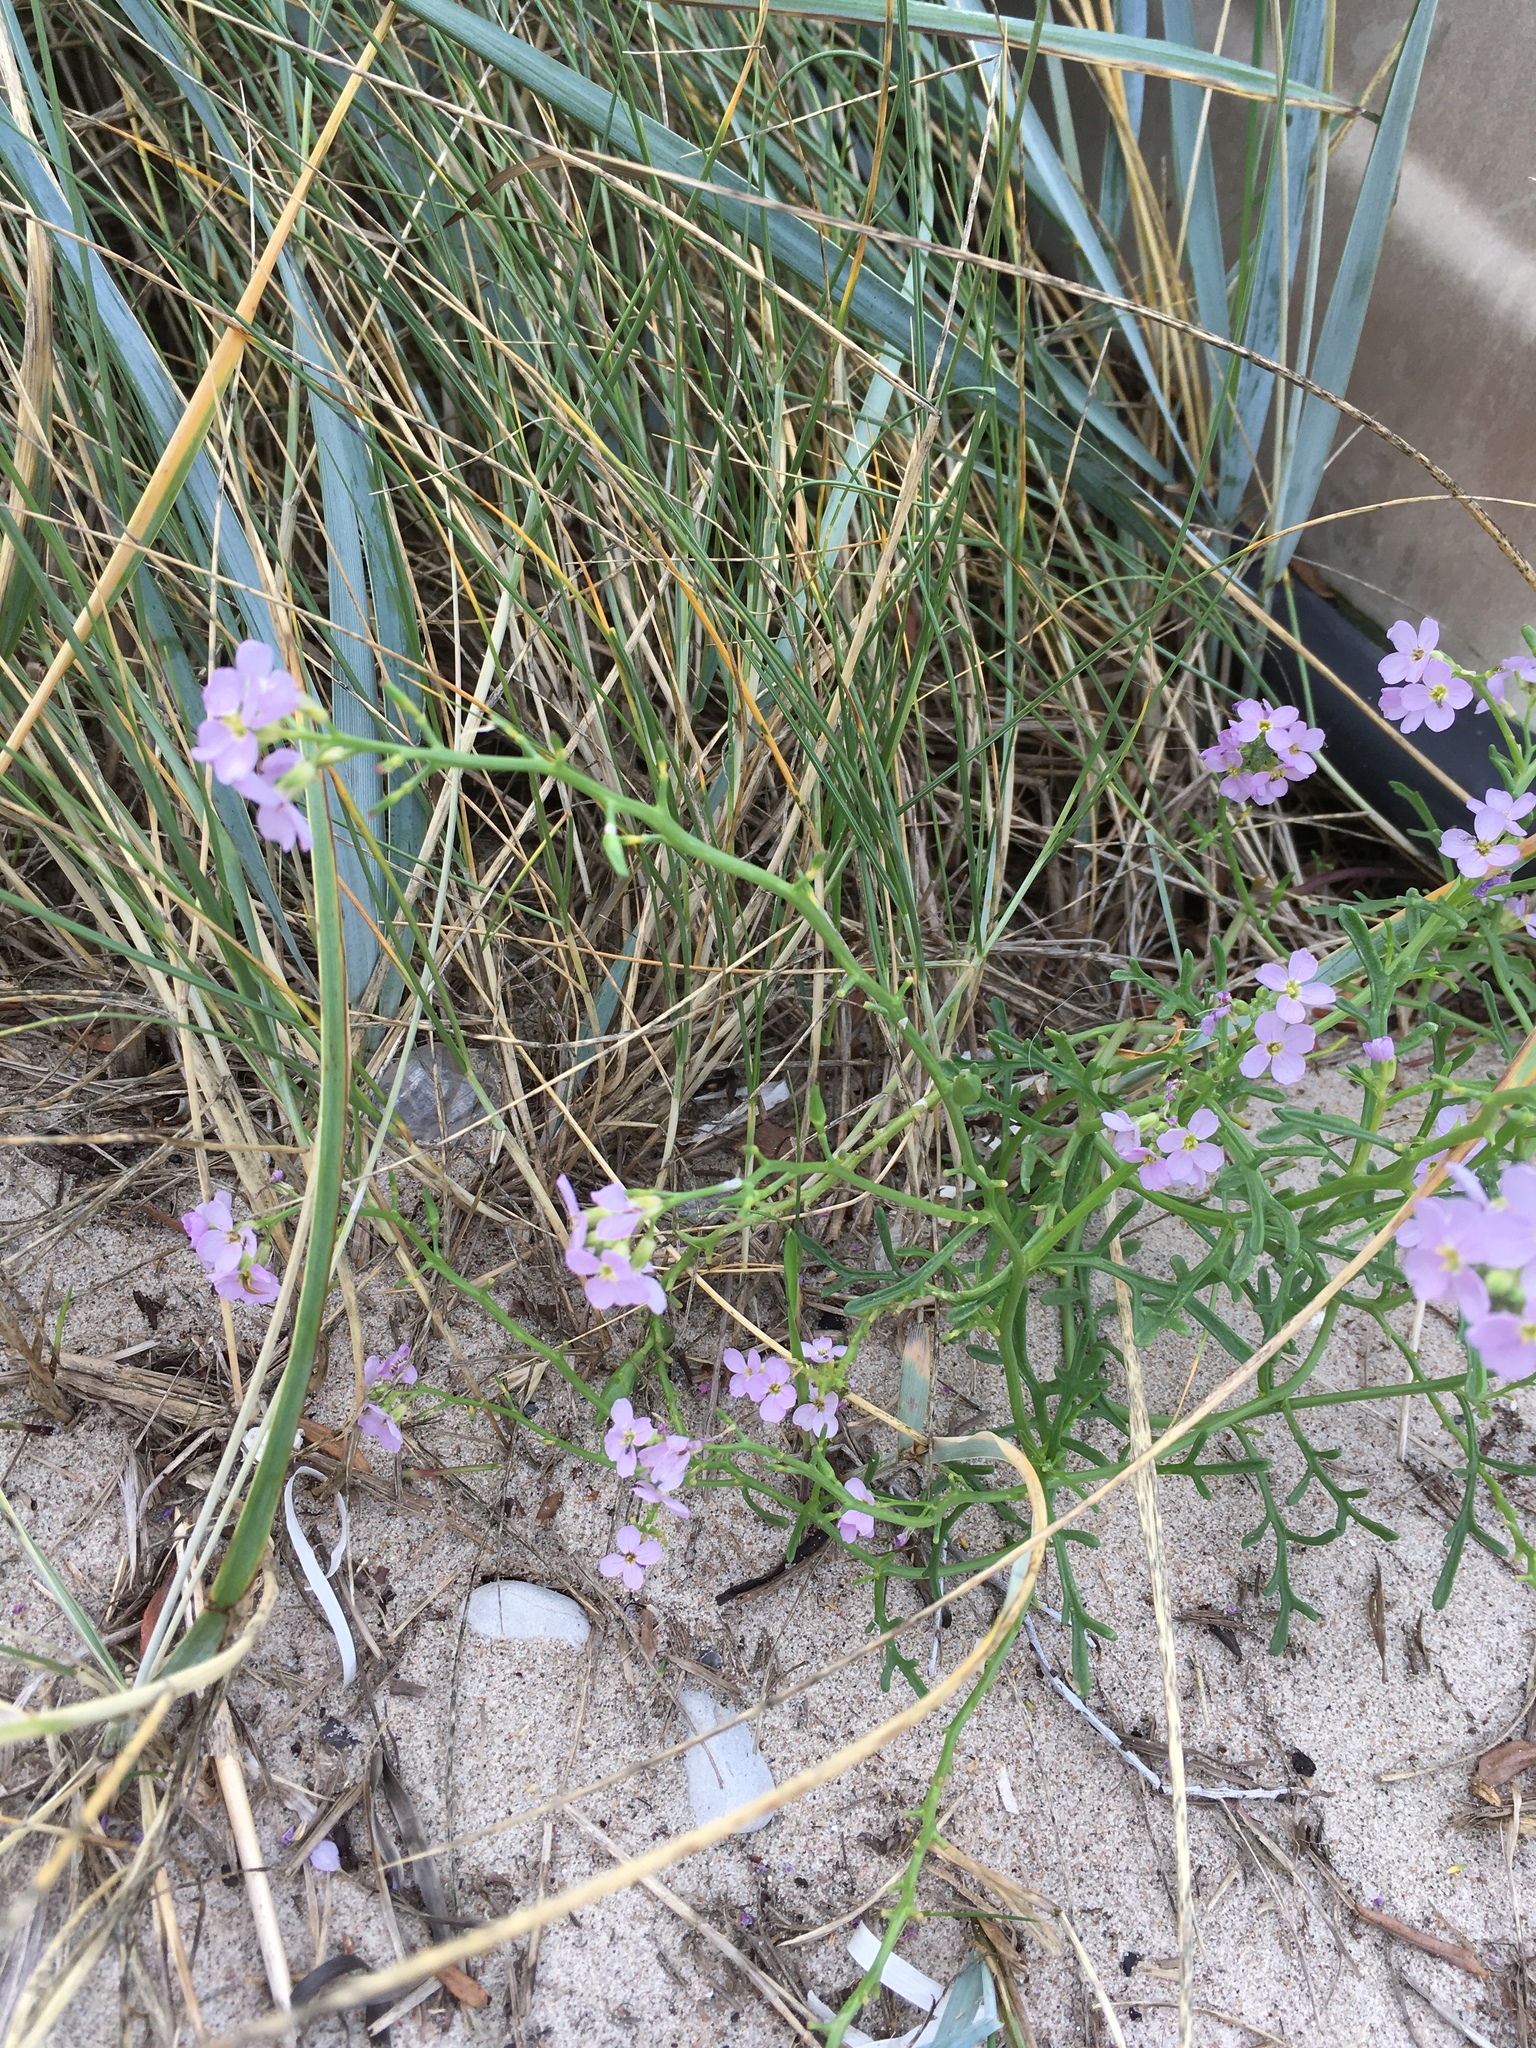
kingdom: Plantae
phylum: Tracheophyta
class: Magnoliopsida
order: Brassicales
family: Brassicaceae
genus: Cakile
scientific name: Cakile maritima
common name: Sea rocket
